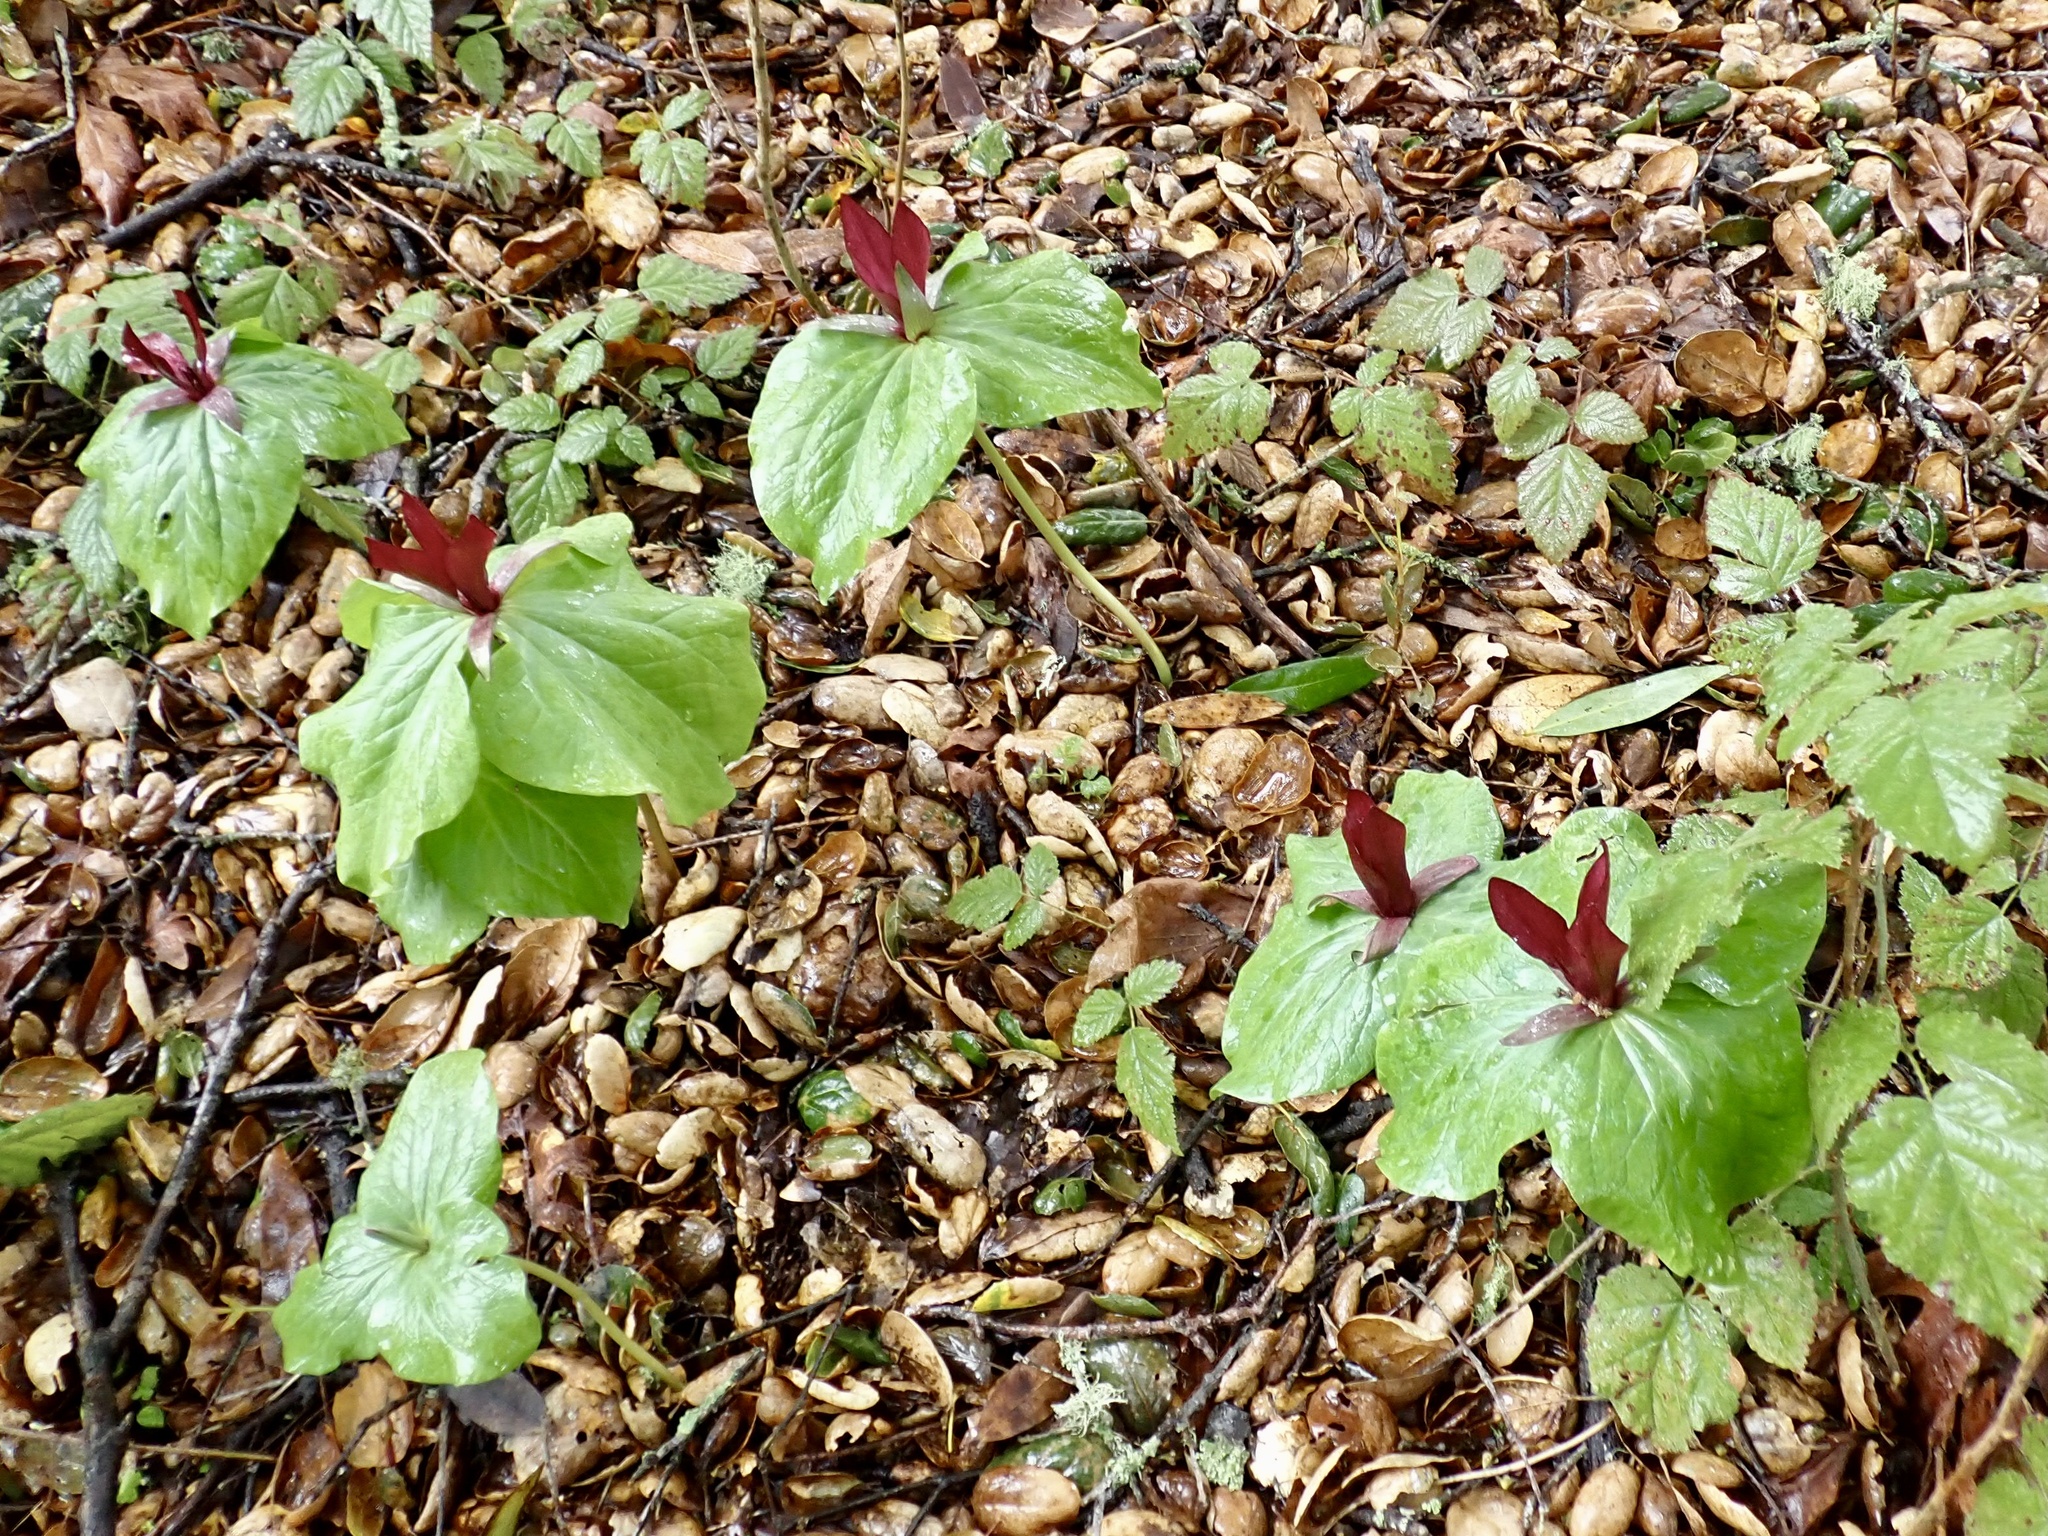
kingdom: Plantae
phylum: Tracheophyta
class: Liliopsida
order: Liliales
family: Melanthiaceae
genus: Trillium
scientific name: Trillium chloropetalum
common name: Giant trillium
